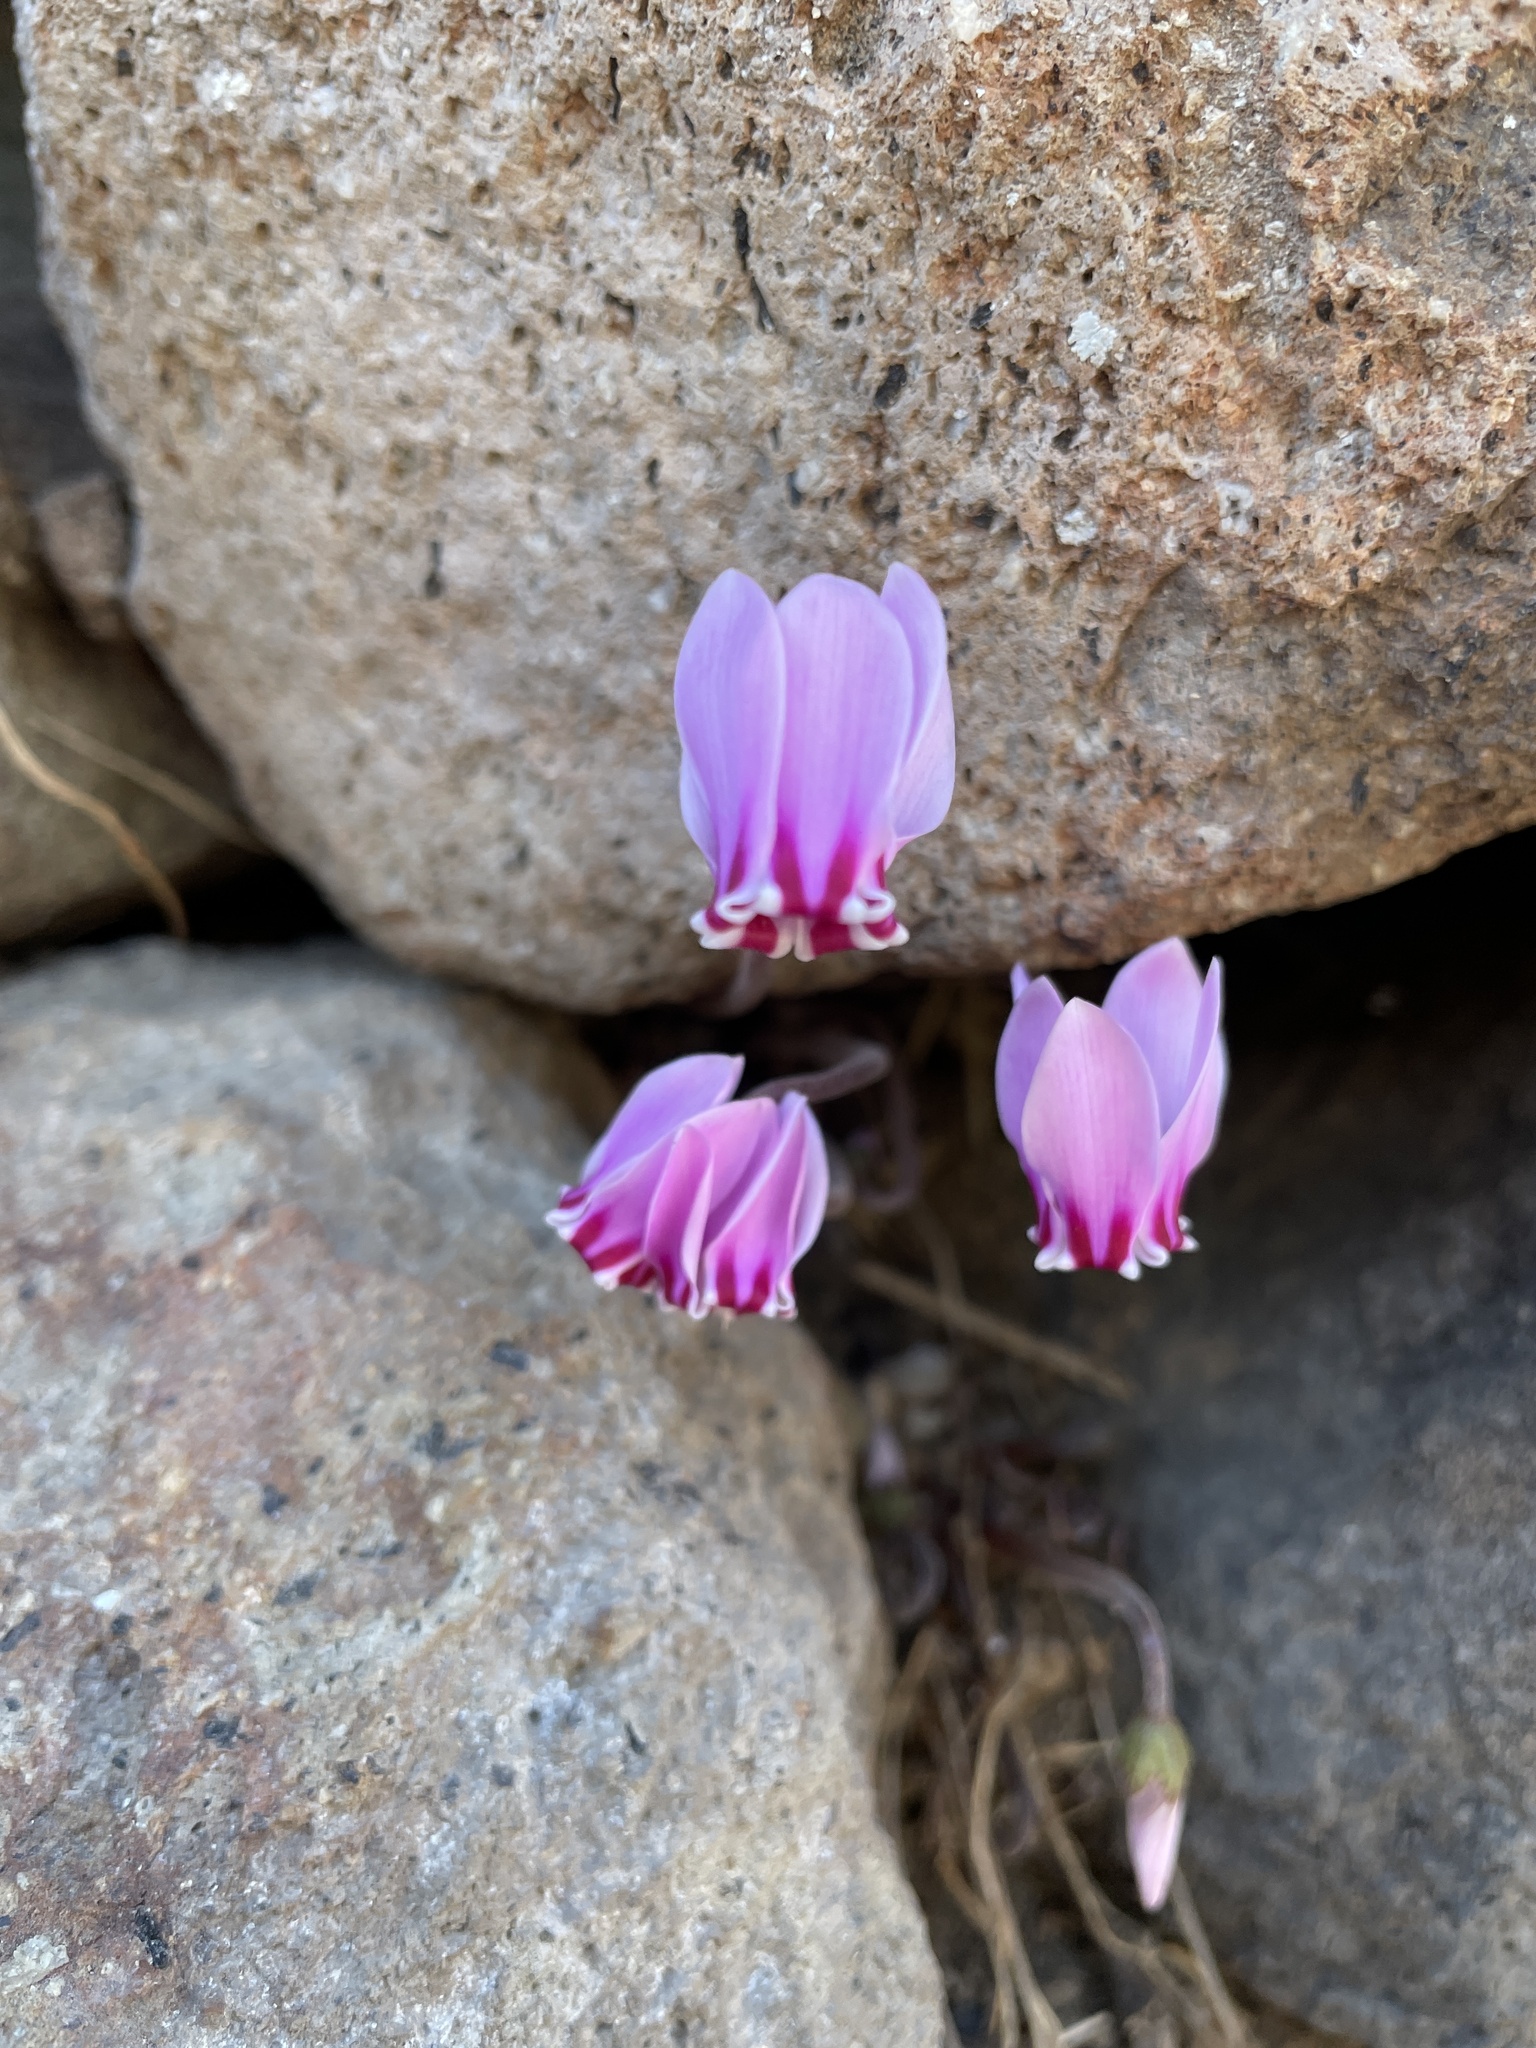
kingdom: Plantae
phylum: Tracheophyta
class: Magnoliopsida
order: Ericales
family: Primulaceae
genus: Cyclamen
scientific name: Cyclamen hederifolium
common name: Sowbread
